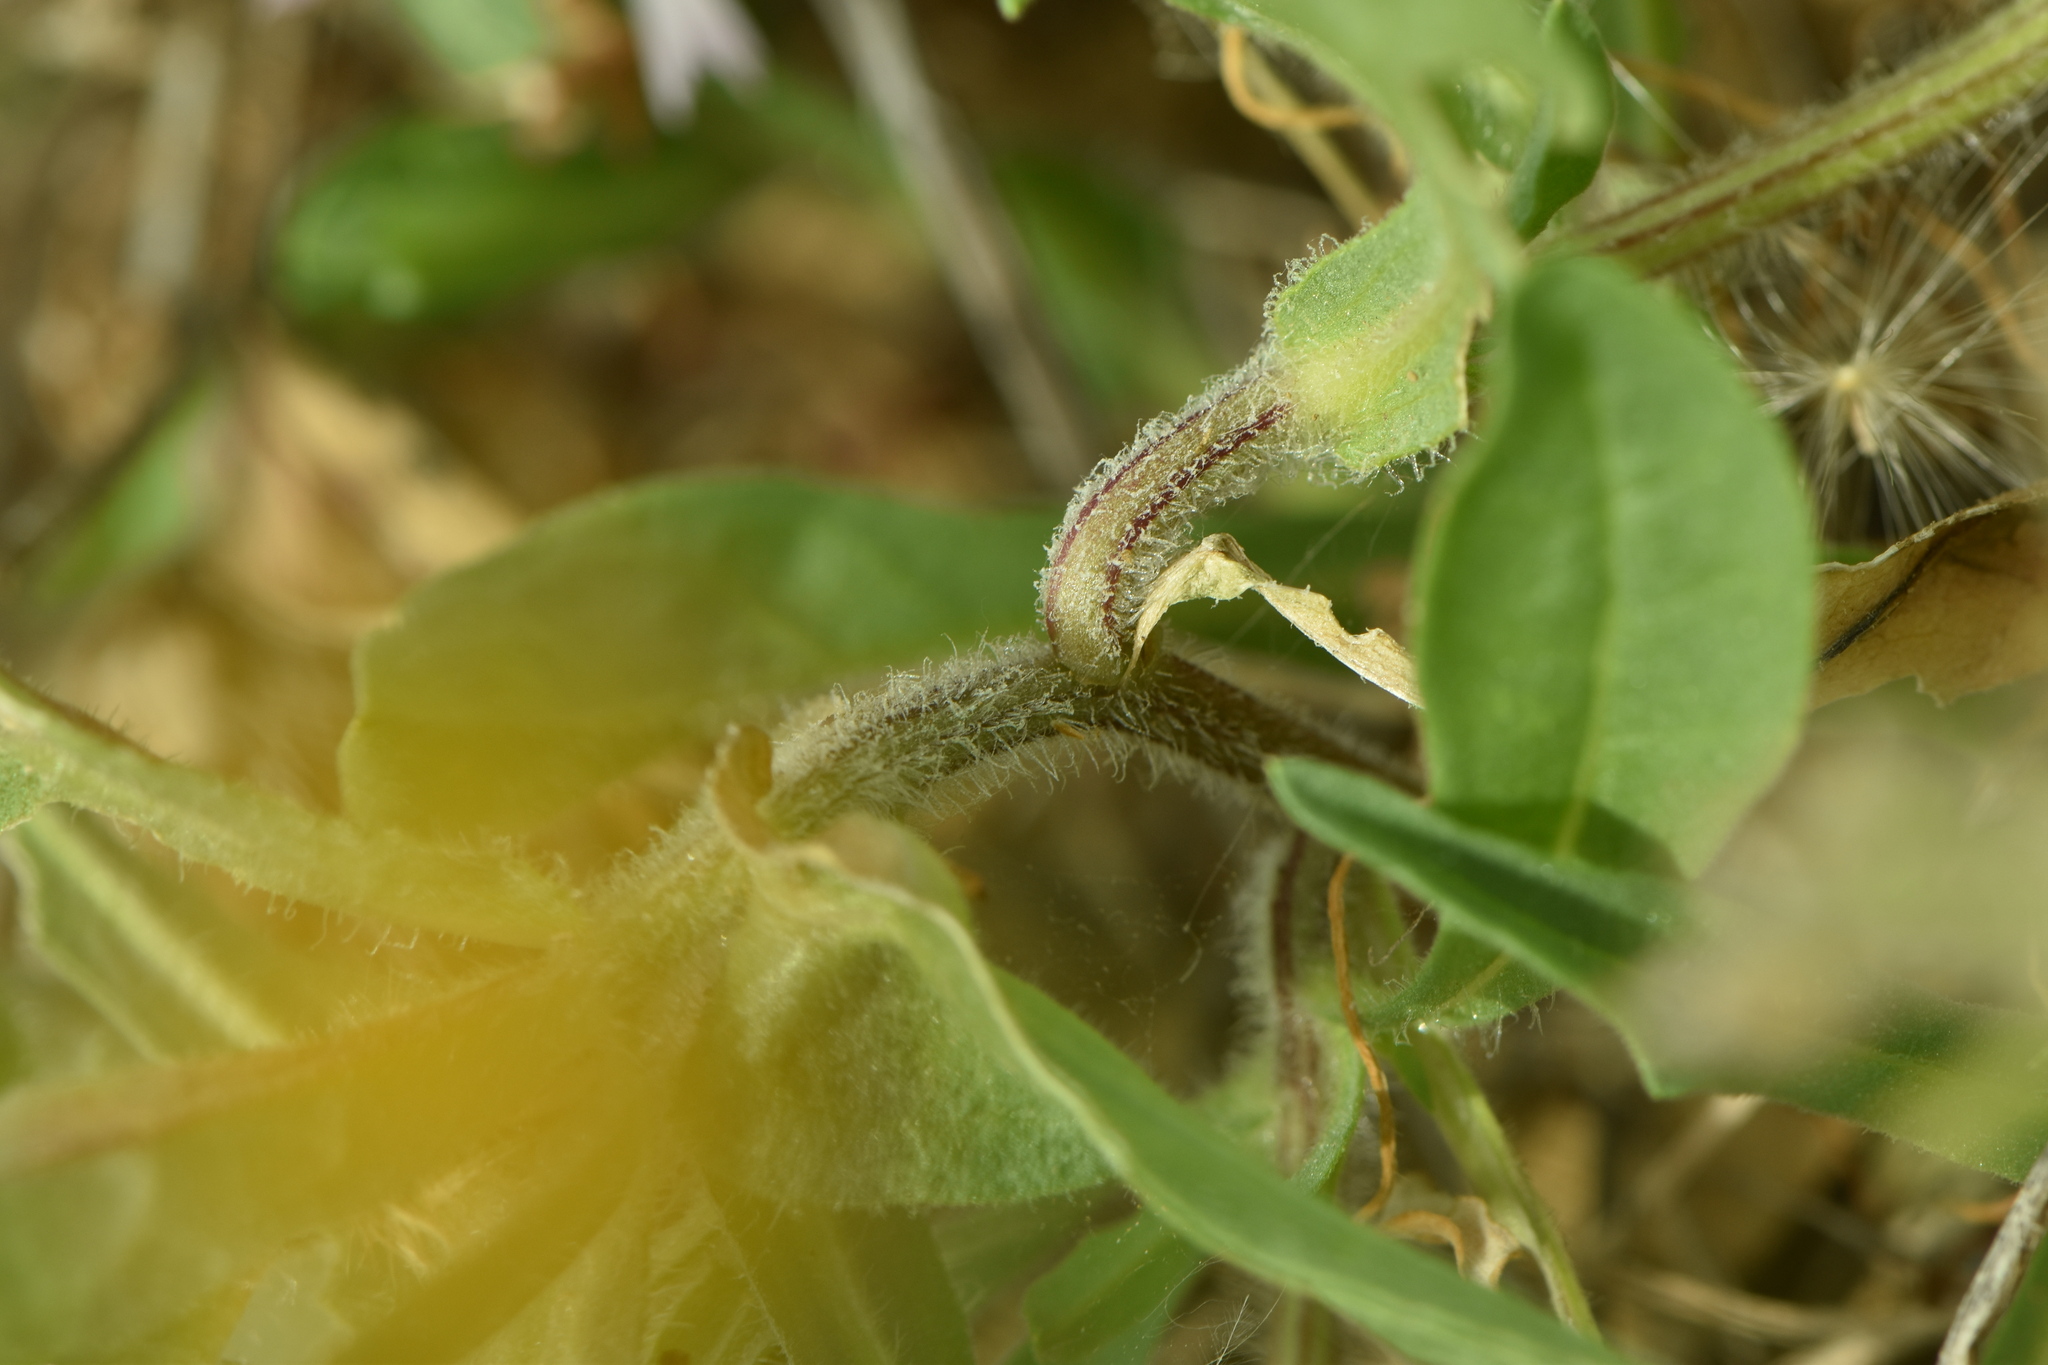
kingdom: Plantae
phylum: Tracheophyta
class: Magnoliopsida
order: Asterales
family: Asteraceae
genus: Centaurea
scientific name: Centaurea pullata
